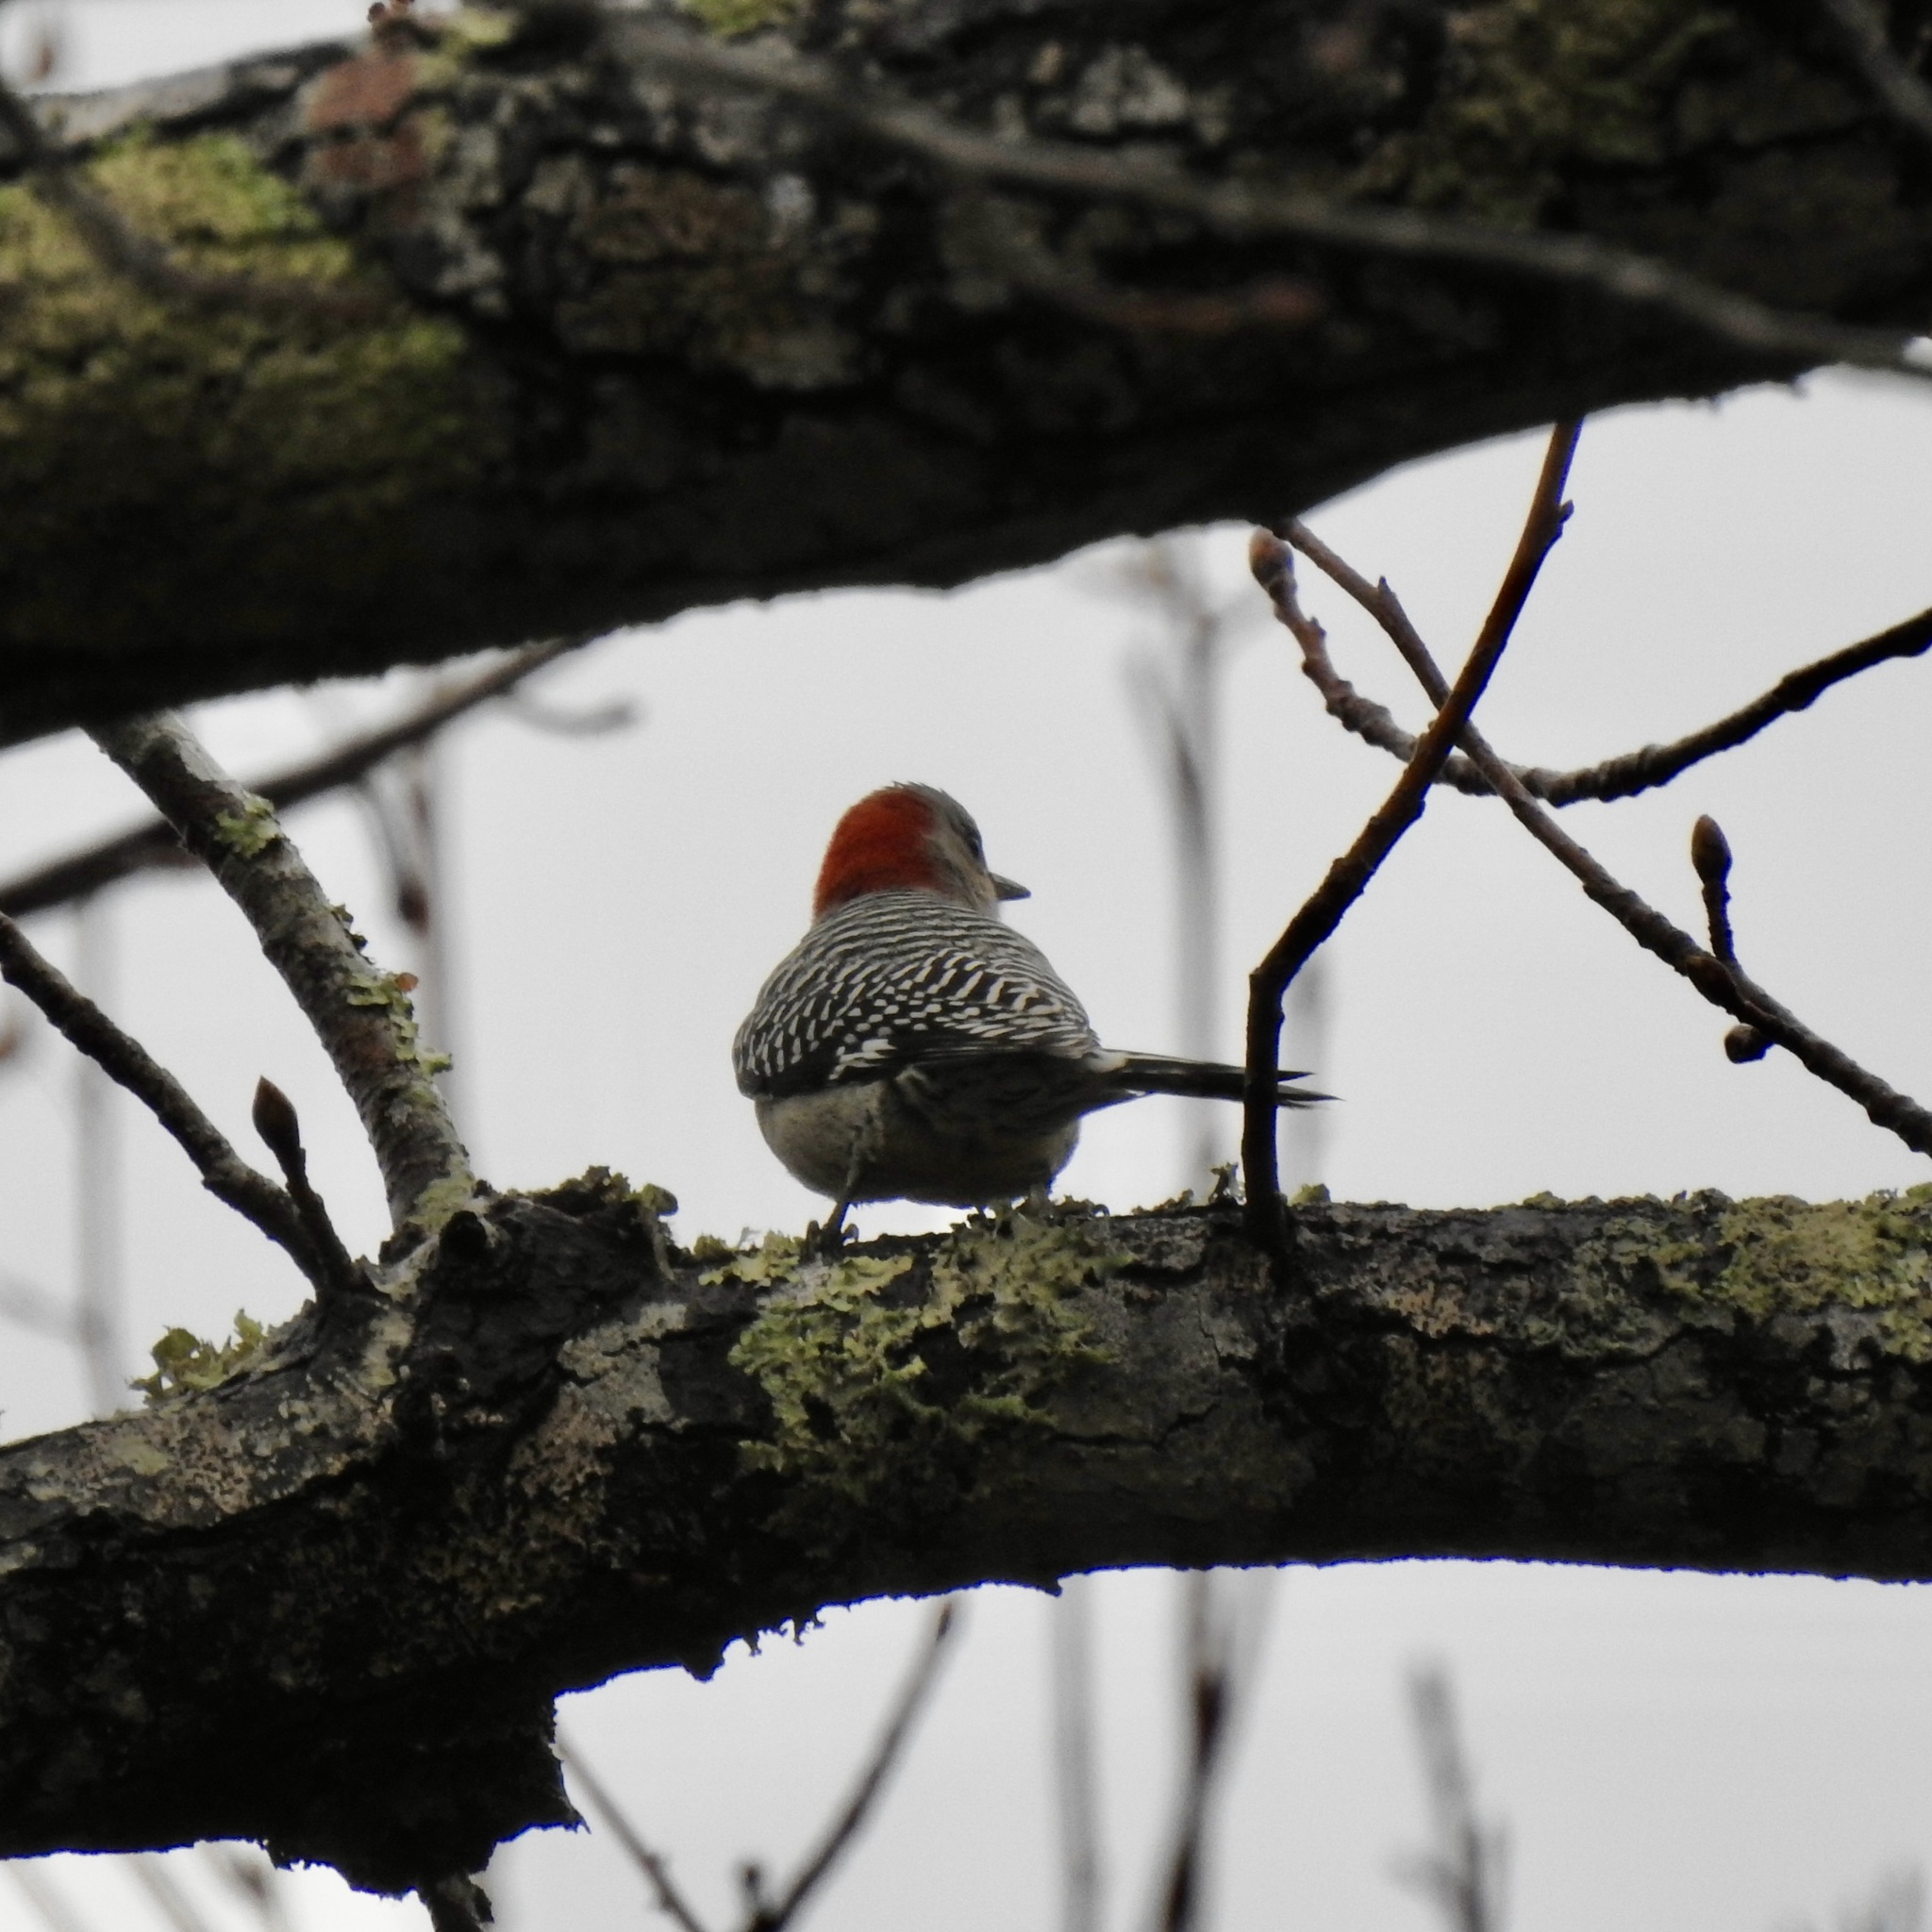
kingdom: Animalia
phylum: Chordata
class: Aves
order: Piciformes
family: Picidae
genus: Melanerpes
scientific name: Melanerpes carolinus
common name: Red-bellied woodpecker
